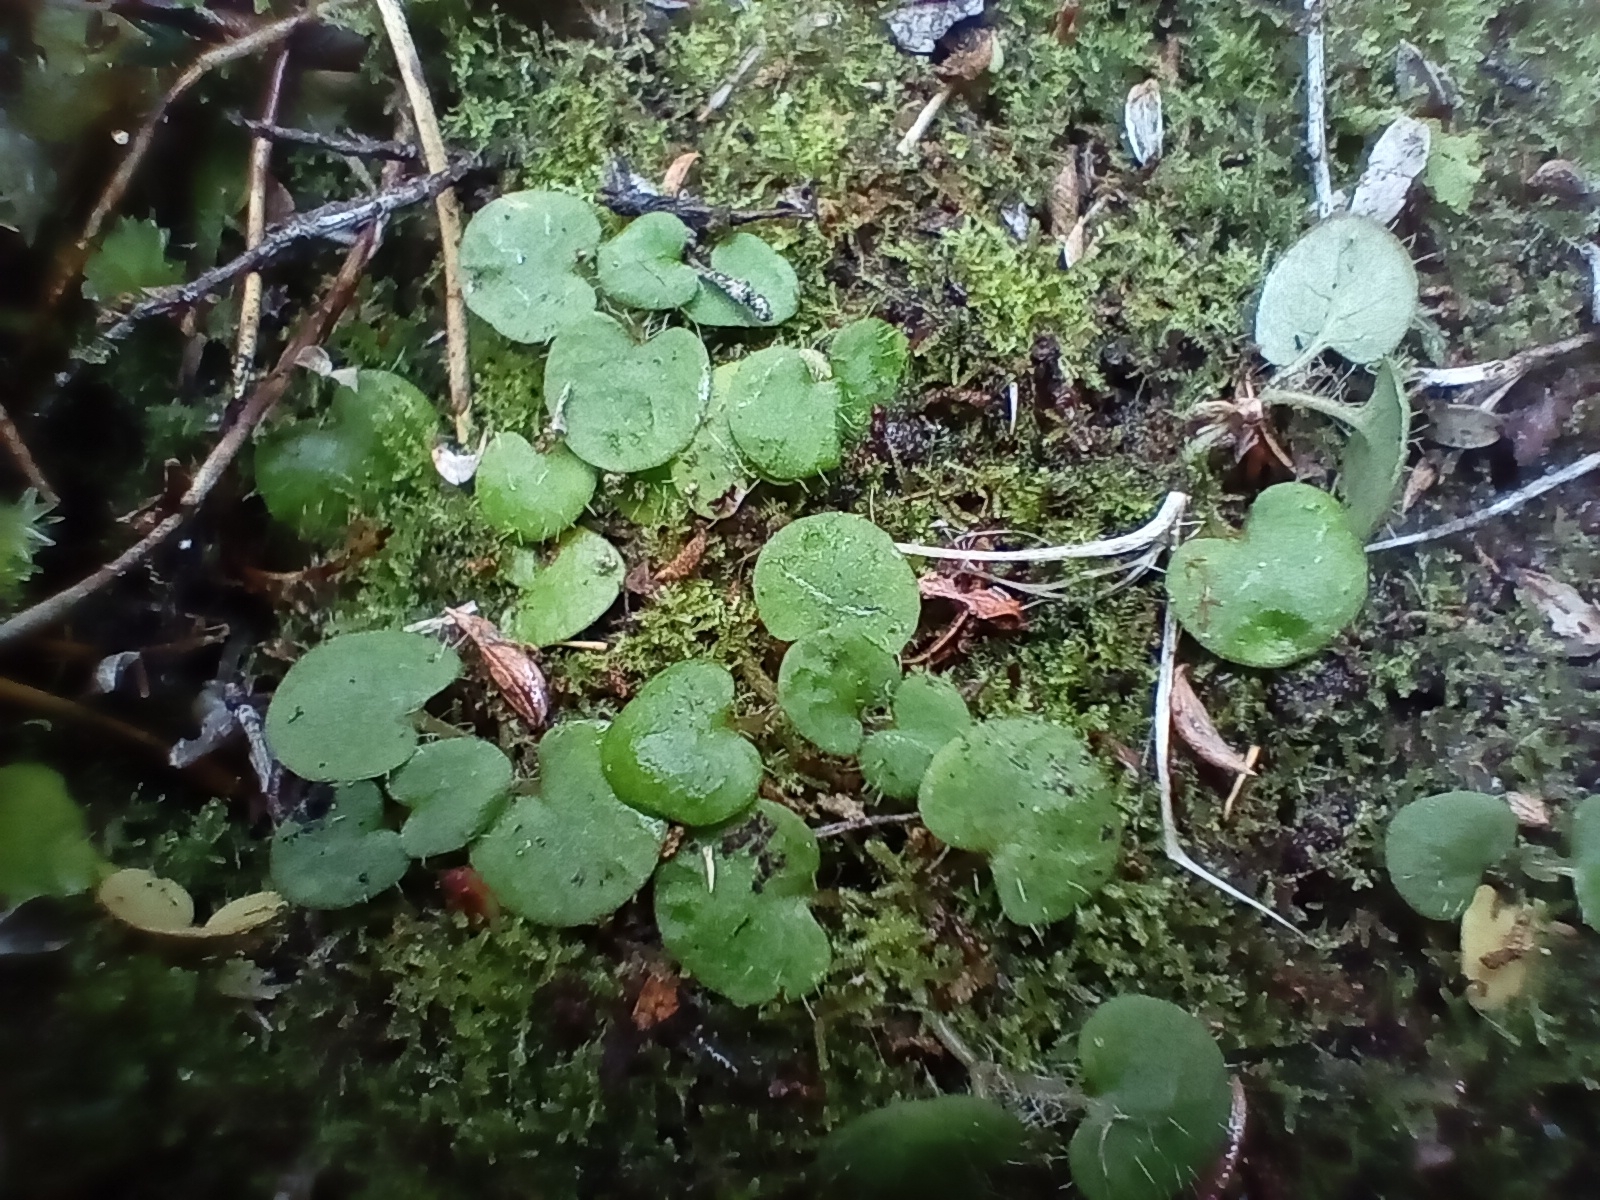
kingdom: Plantae
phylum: Tracheophyta
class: Magnoliopsida
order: Gentianales
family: Rubiaceae
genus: Nertera
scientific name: Nertera scapanioides
